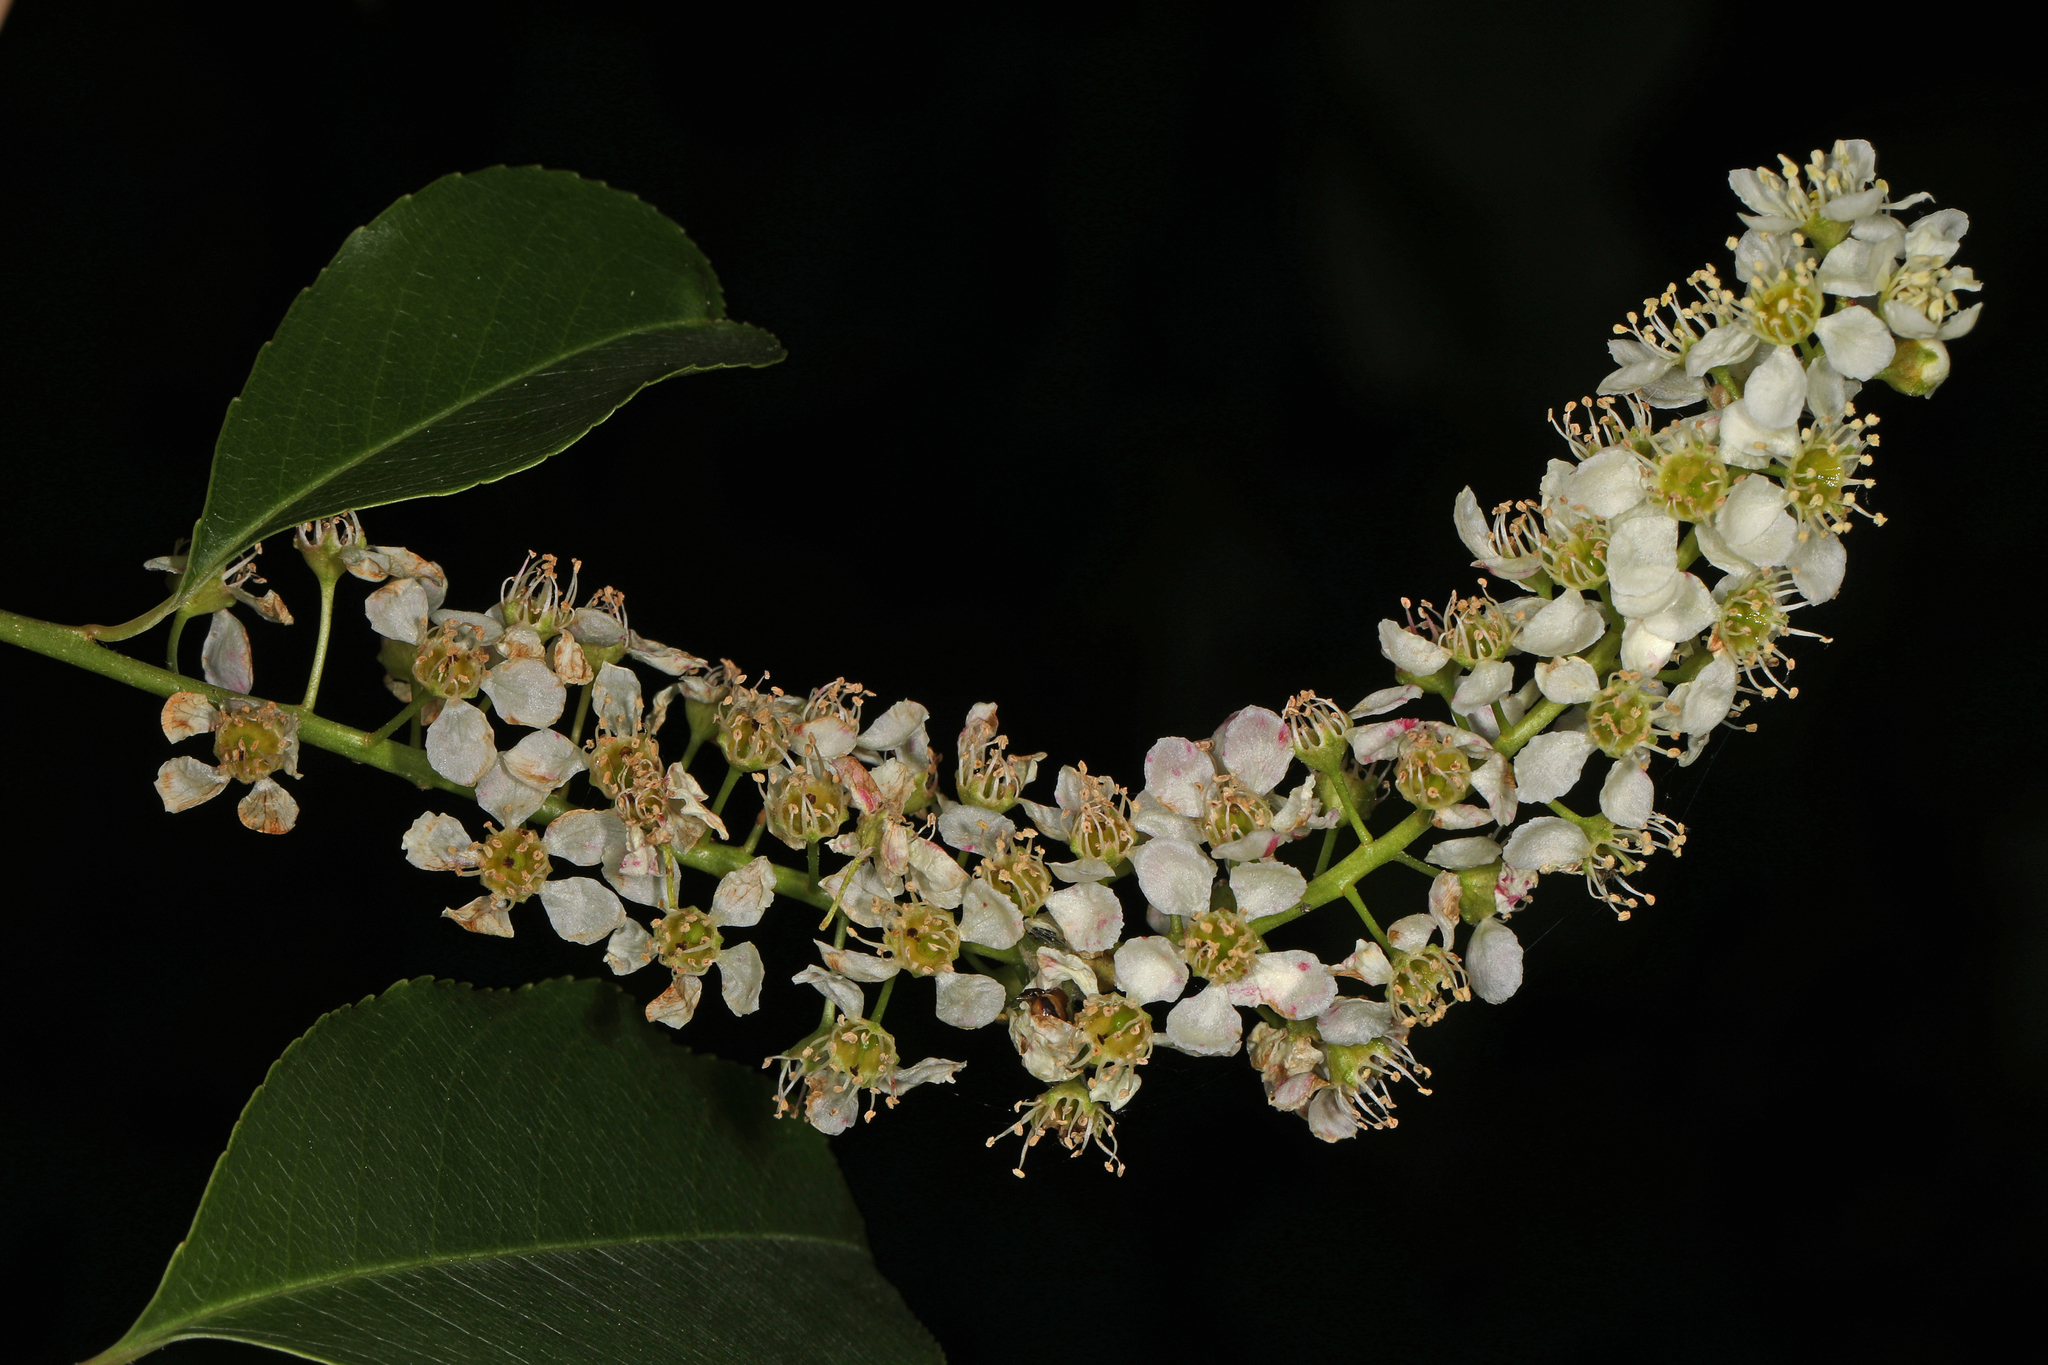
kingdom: Plantae
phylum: Tracheophyta
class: Magnoliopsida
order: Rosales
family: Rosaceae
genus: Prunus
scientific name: Prunus serotina
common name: Black cherry
